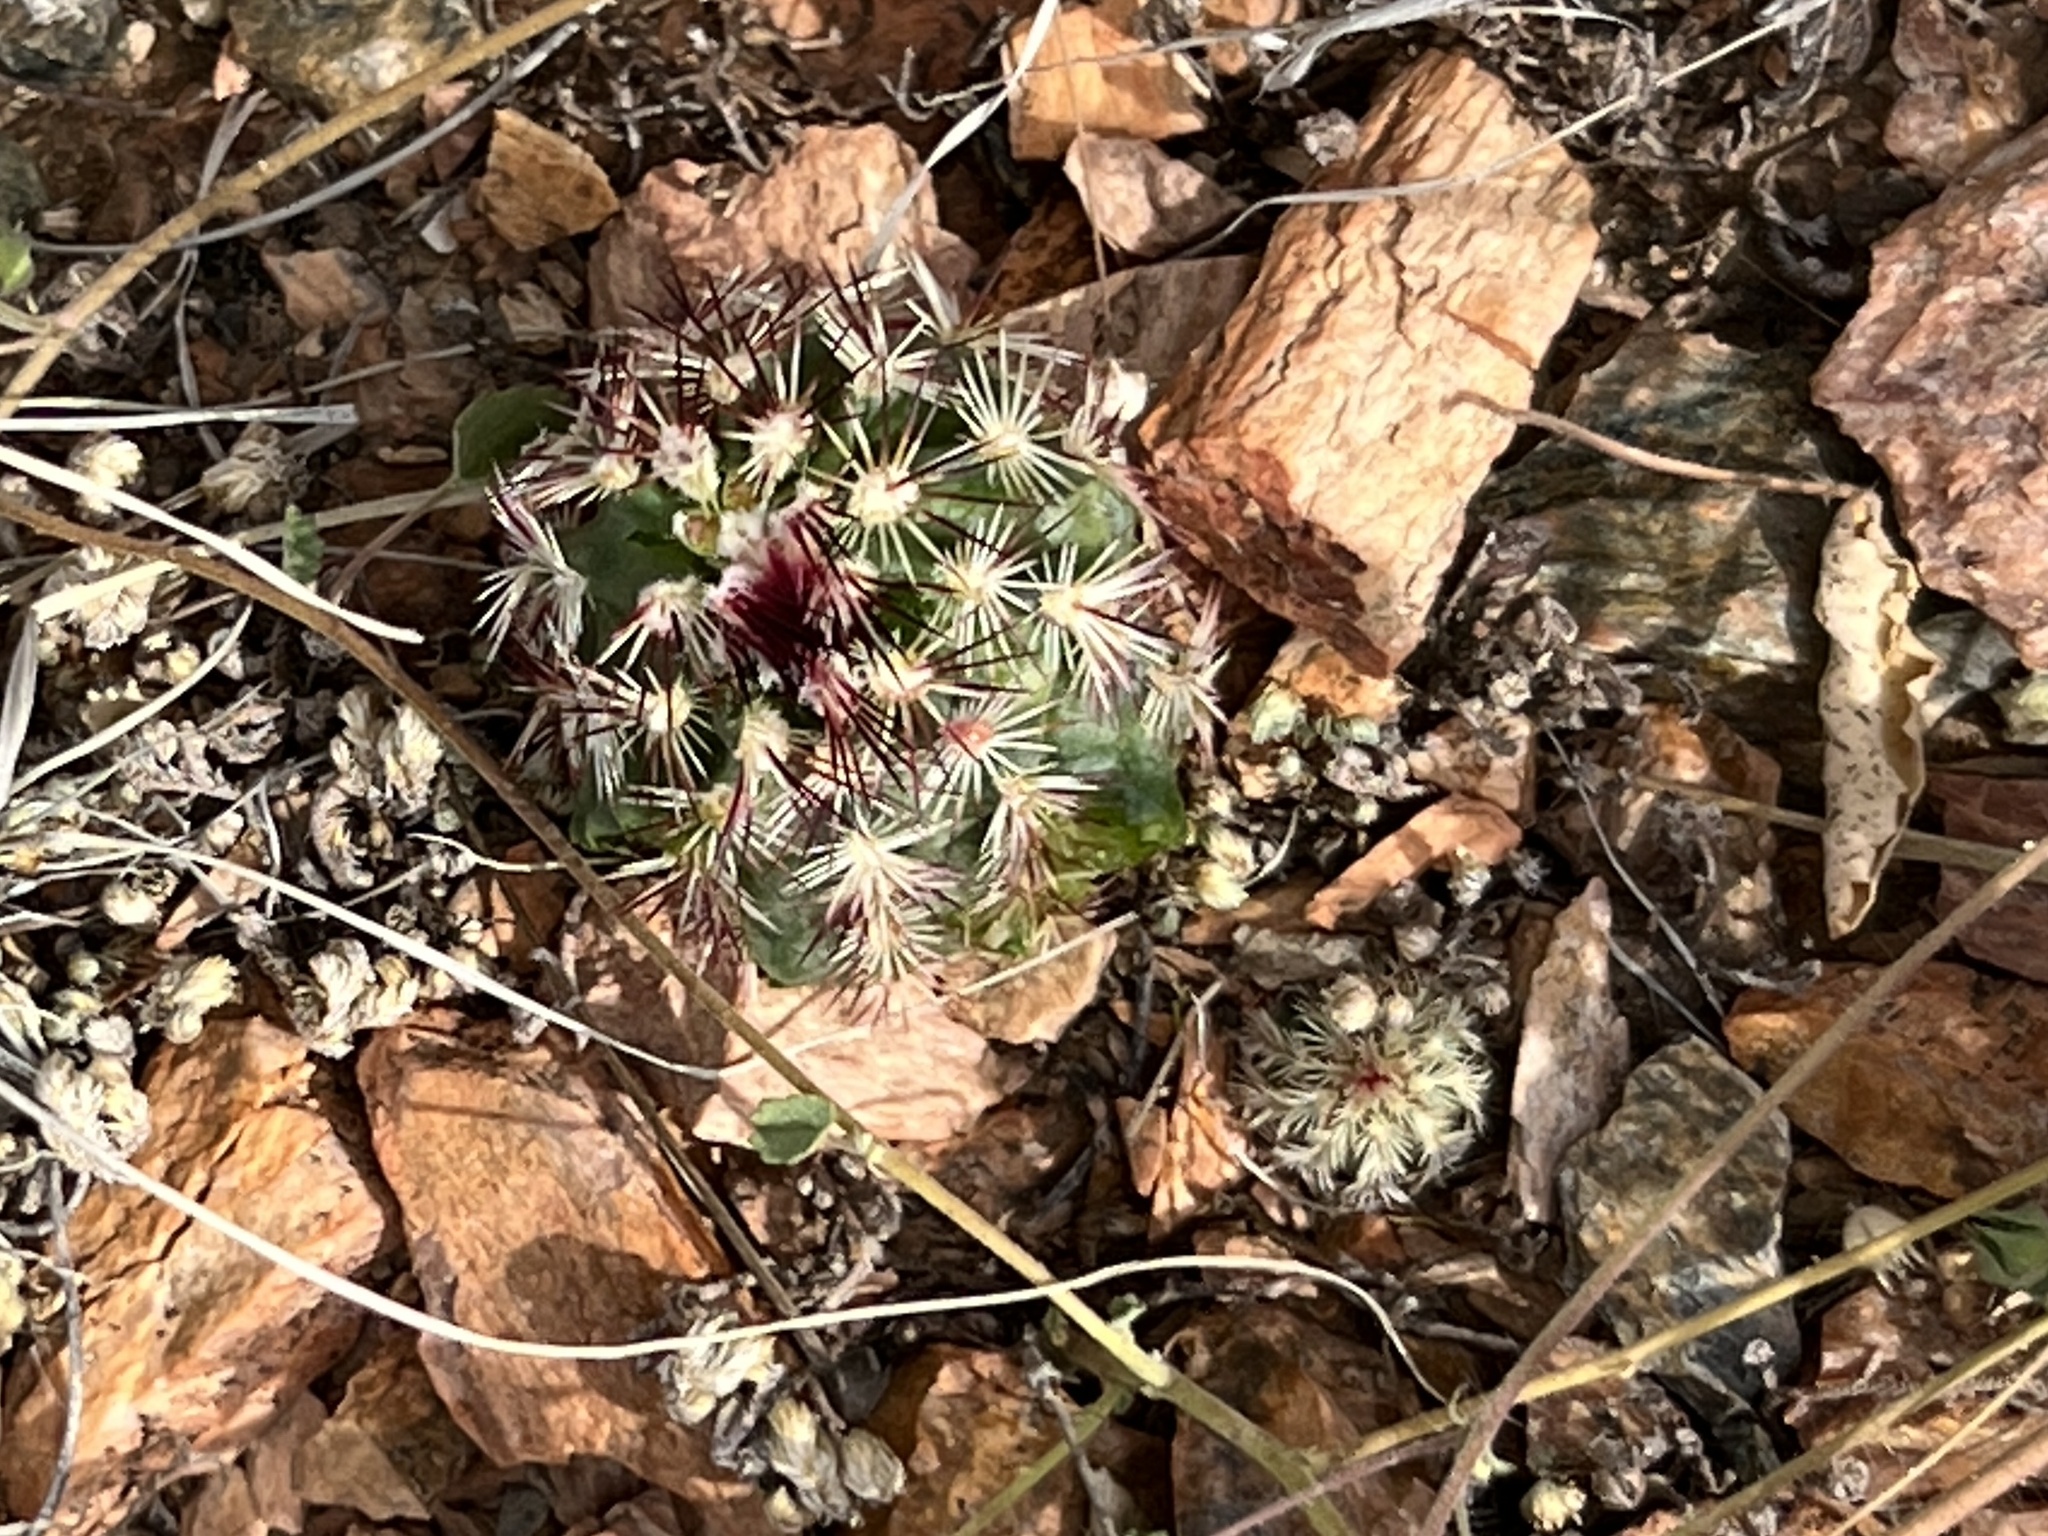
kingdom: Plantae
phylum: Tracheophyta
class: Magnoliopsida
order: Caryophyllales
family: Cactaceae
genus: Echinocereus
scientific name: Echinocereus viridiflorus
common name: Nylon hedgehog cactus
